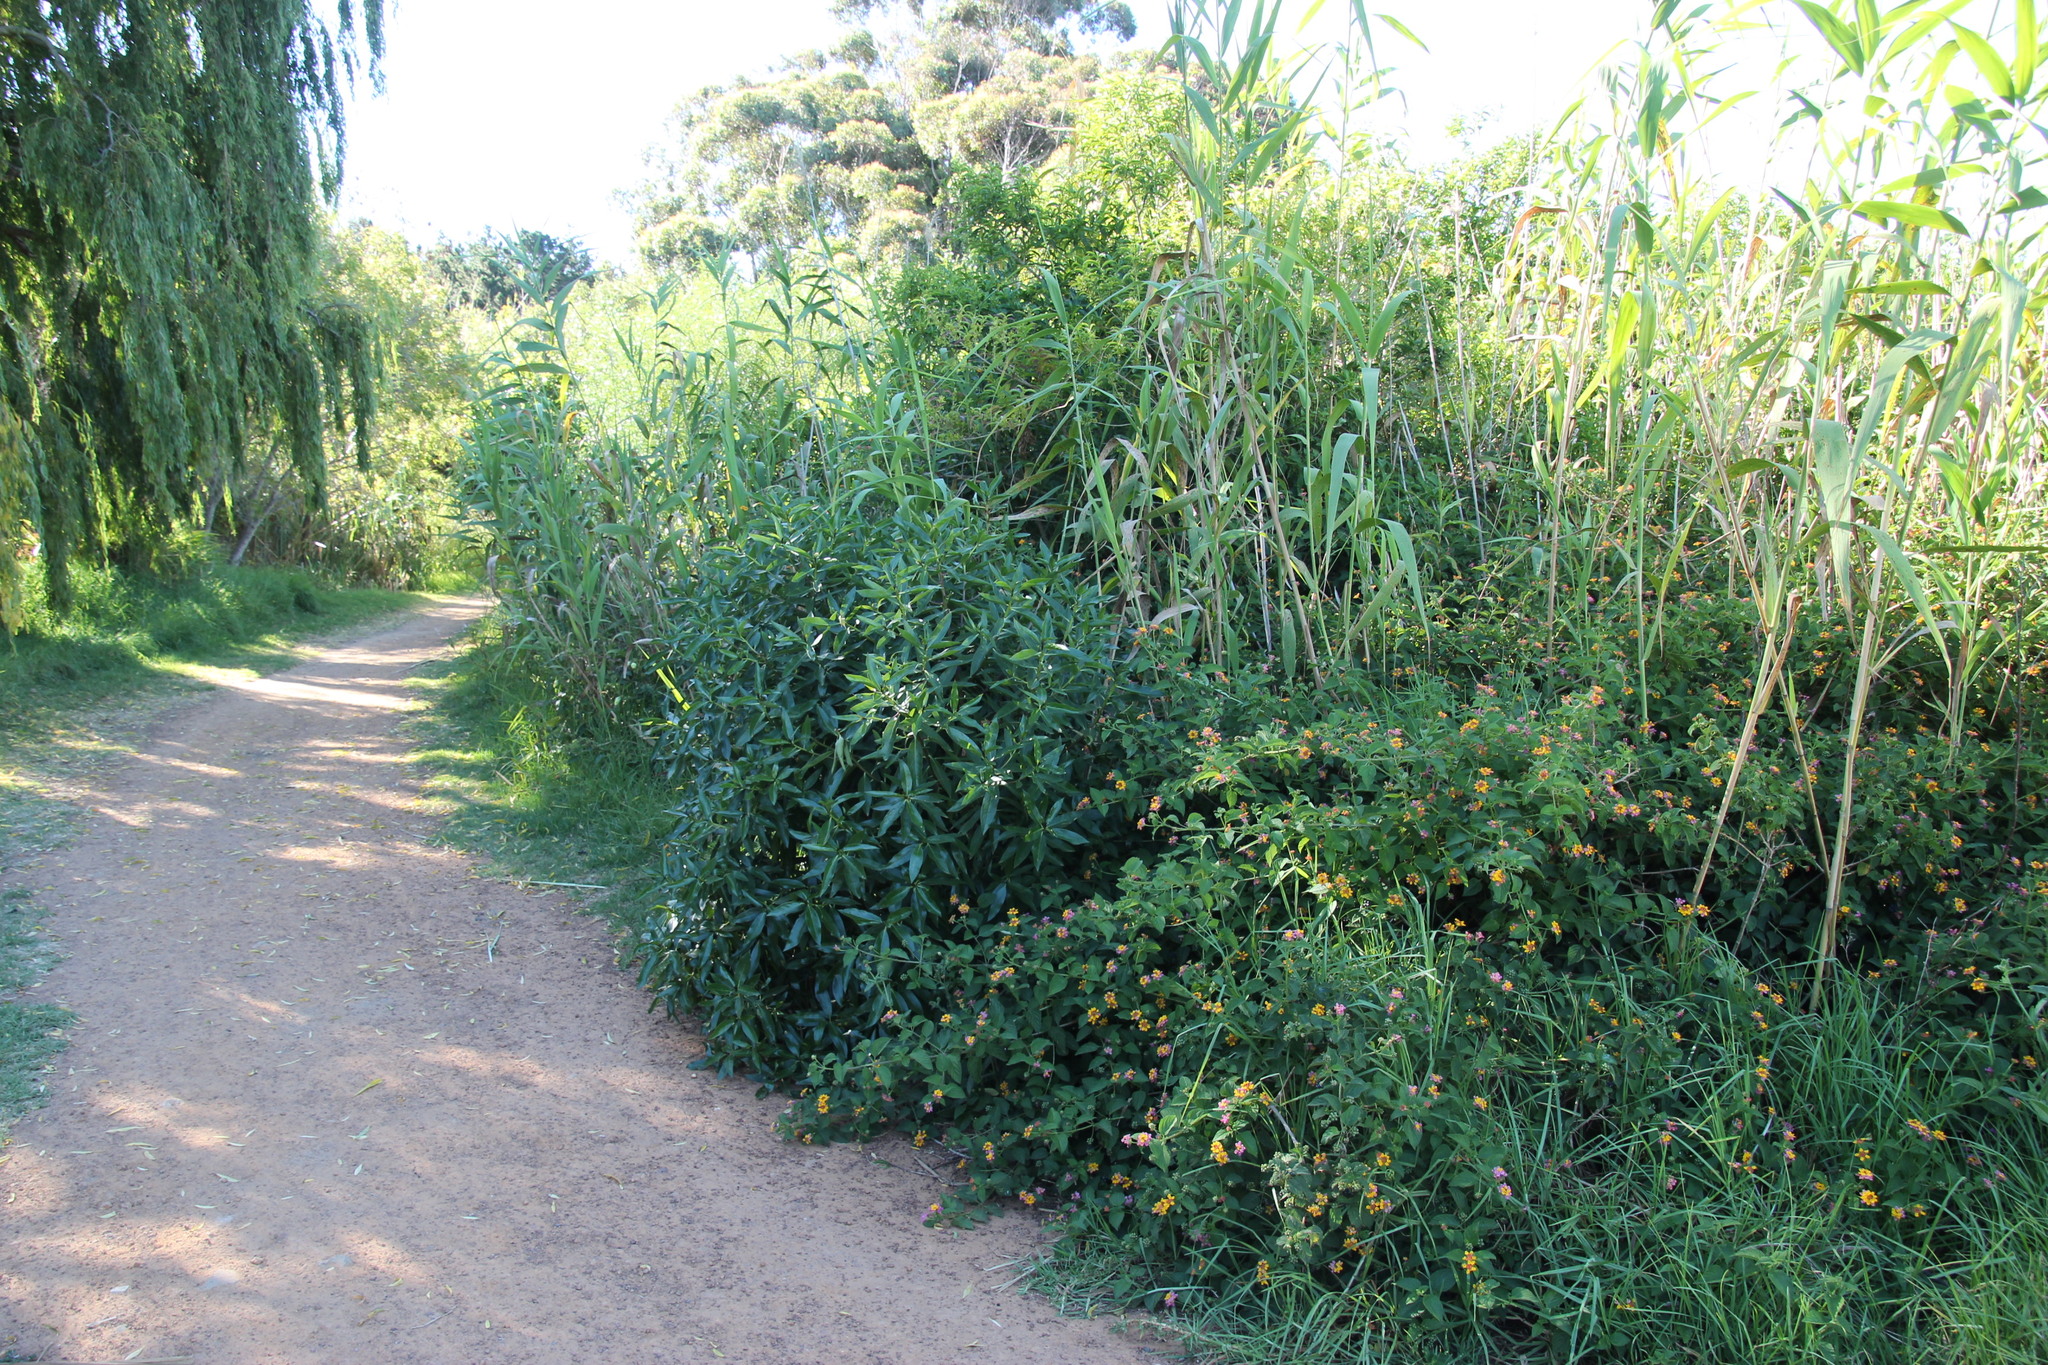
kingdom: Plantae
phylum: Tracheophyta
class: Magnoliopsida
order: Lamiales
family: Scrophulariaceae
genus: Myoporum
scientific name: Myoporum laetum
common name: Ngaio tree
